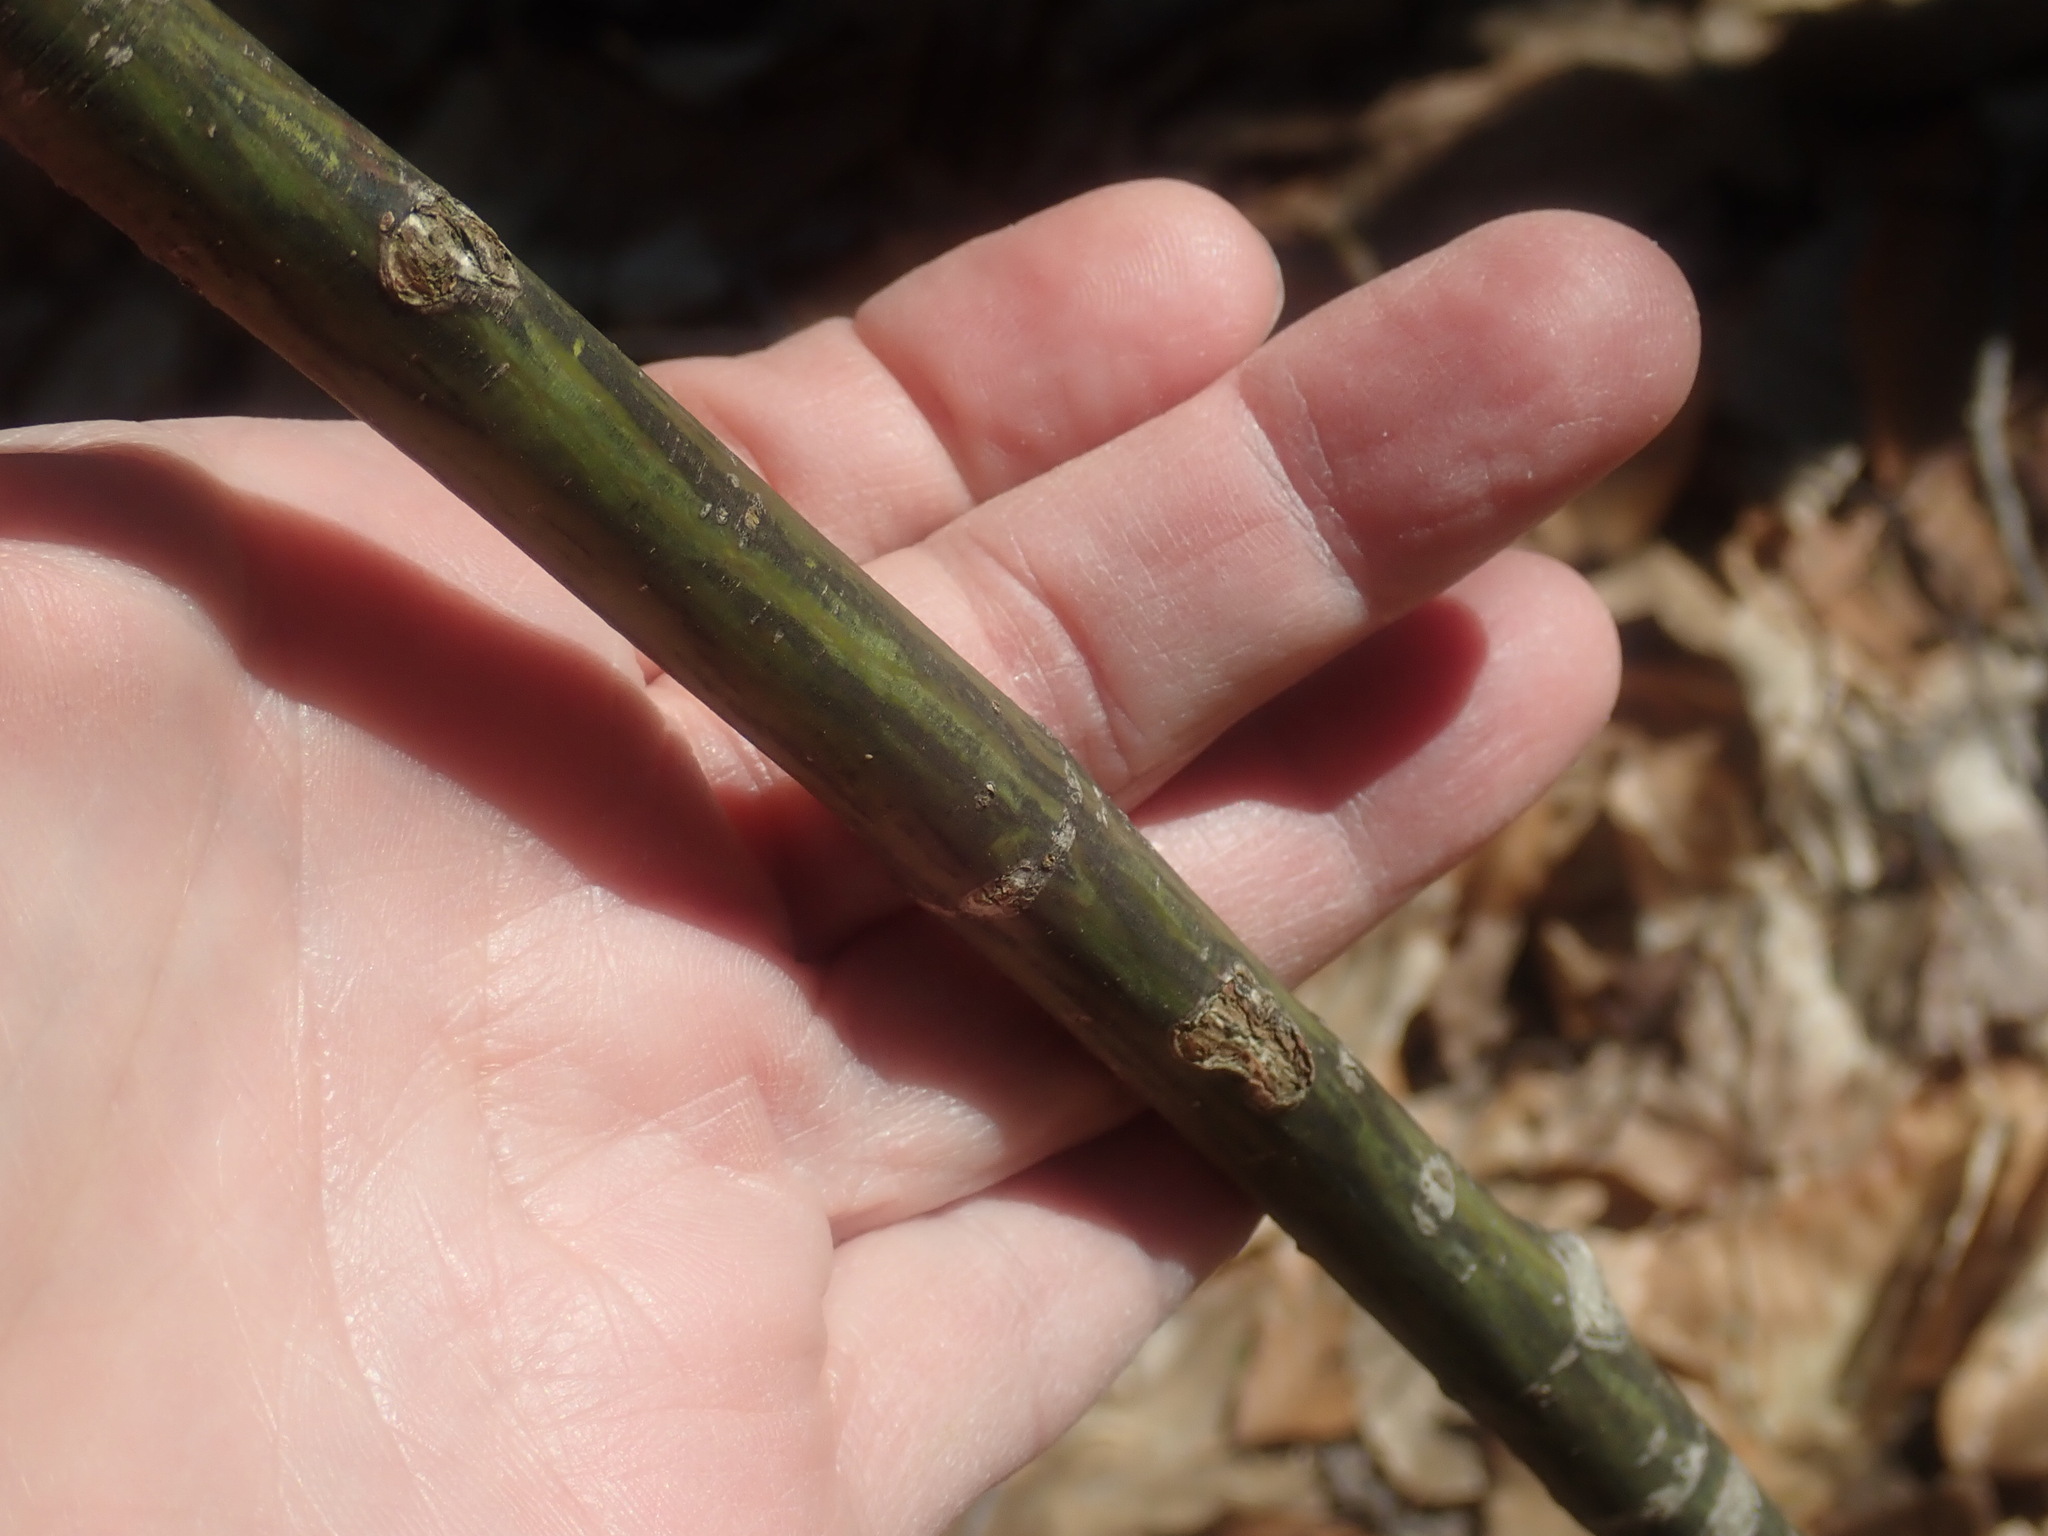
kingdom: Plantae
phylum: Tracheophyta
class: Magnoliopsida
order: Sapindales
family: Sapindaceae
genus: Acer
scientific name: Acer pensylvanicum
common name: Moosewood
